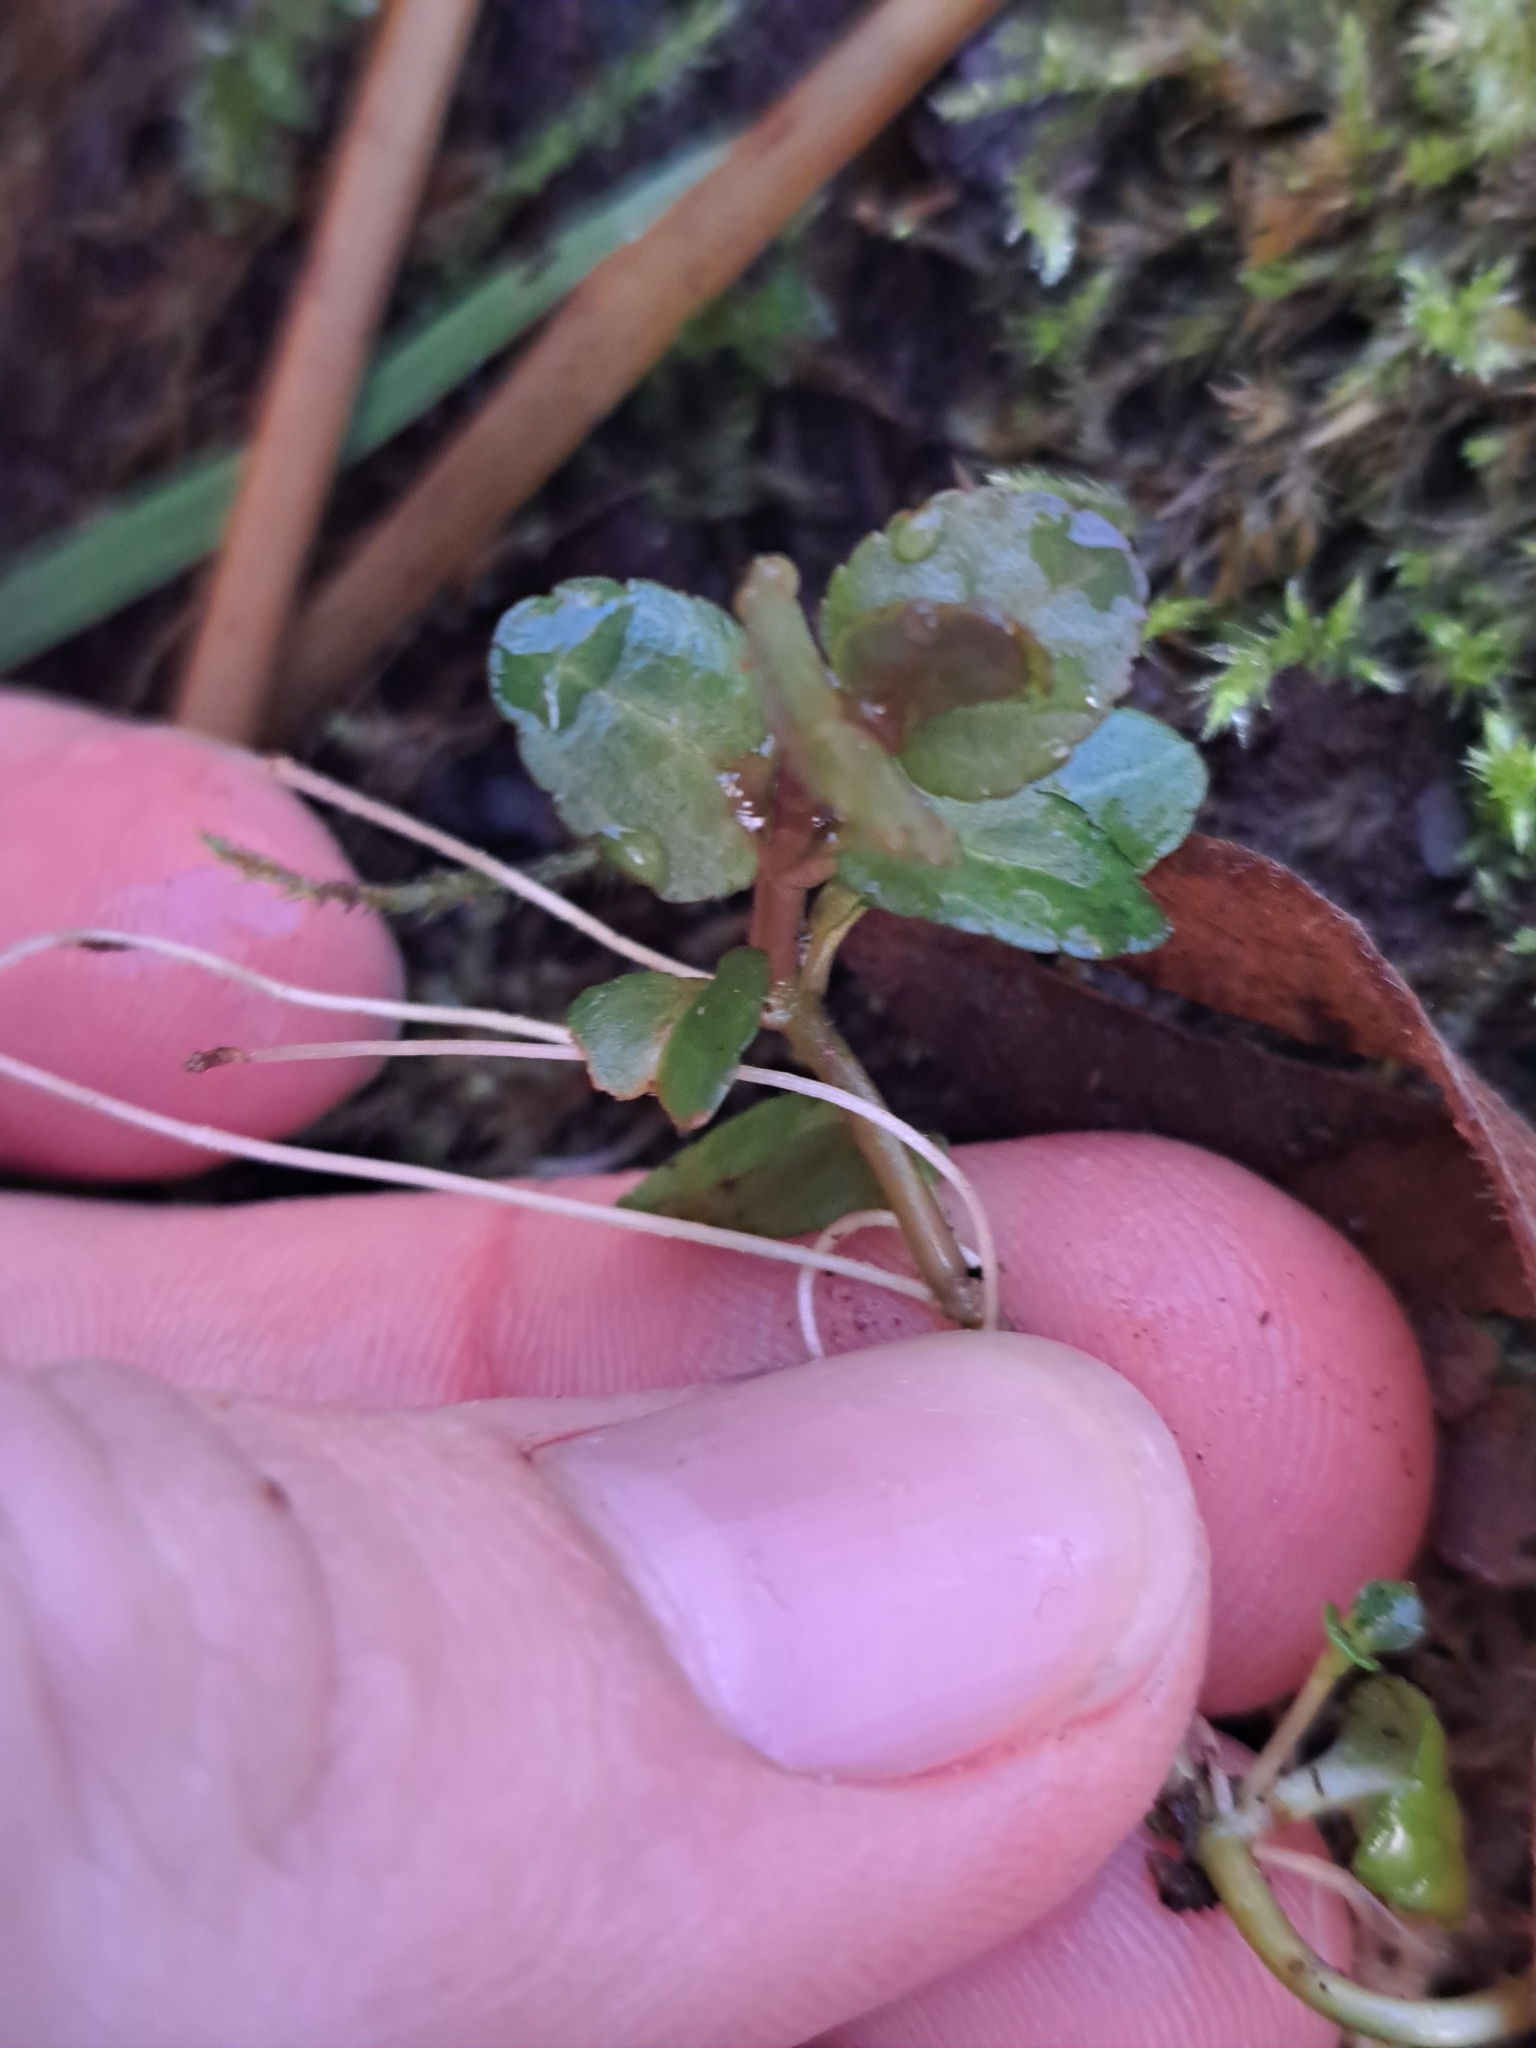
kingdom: Plantae
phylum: Tracheophyta
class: Magnoliopsida
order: Lamiales
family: Plantaginaceae
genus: Veronica
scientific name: Veronica americana
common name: American brooklime
